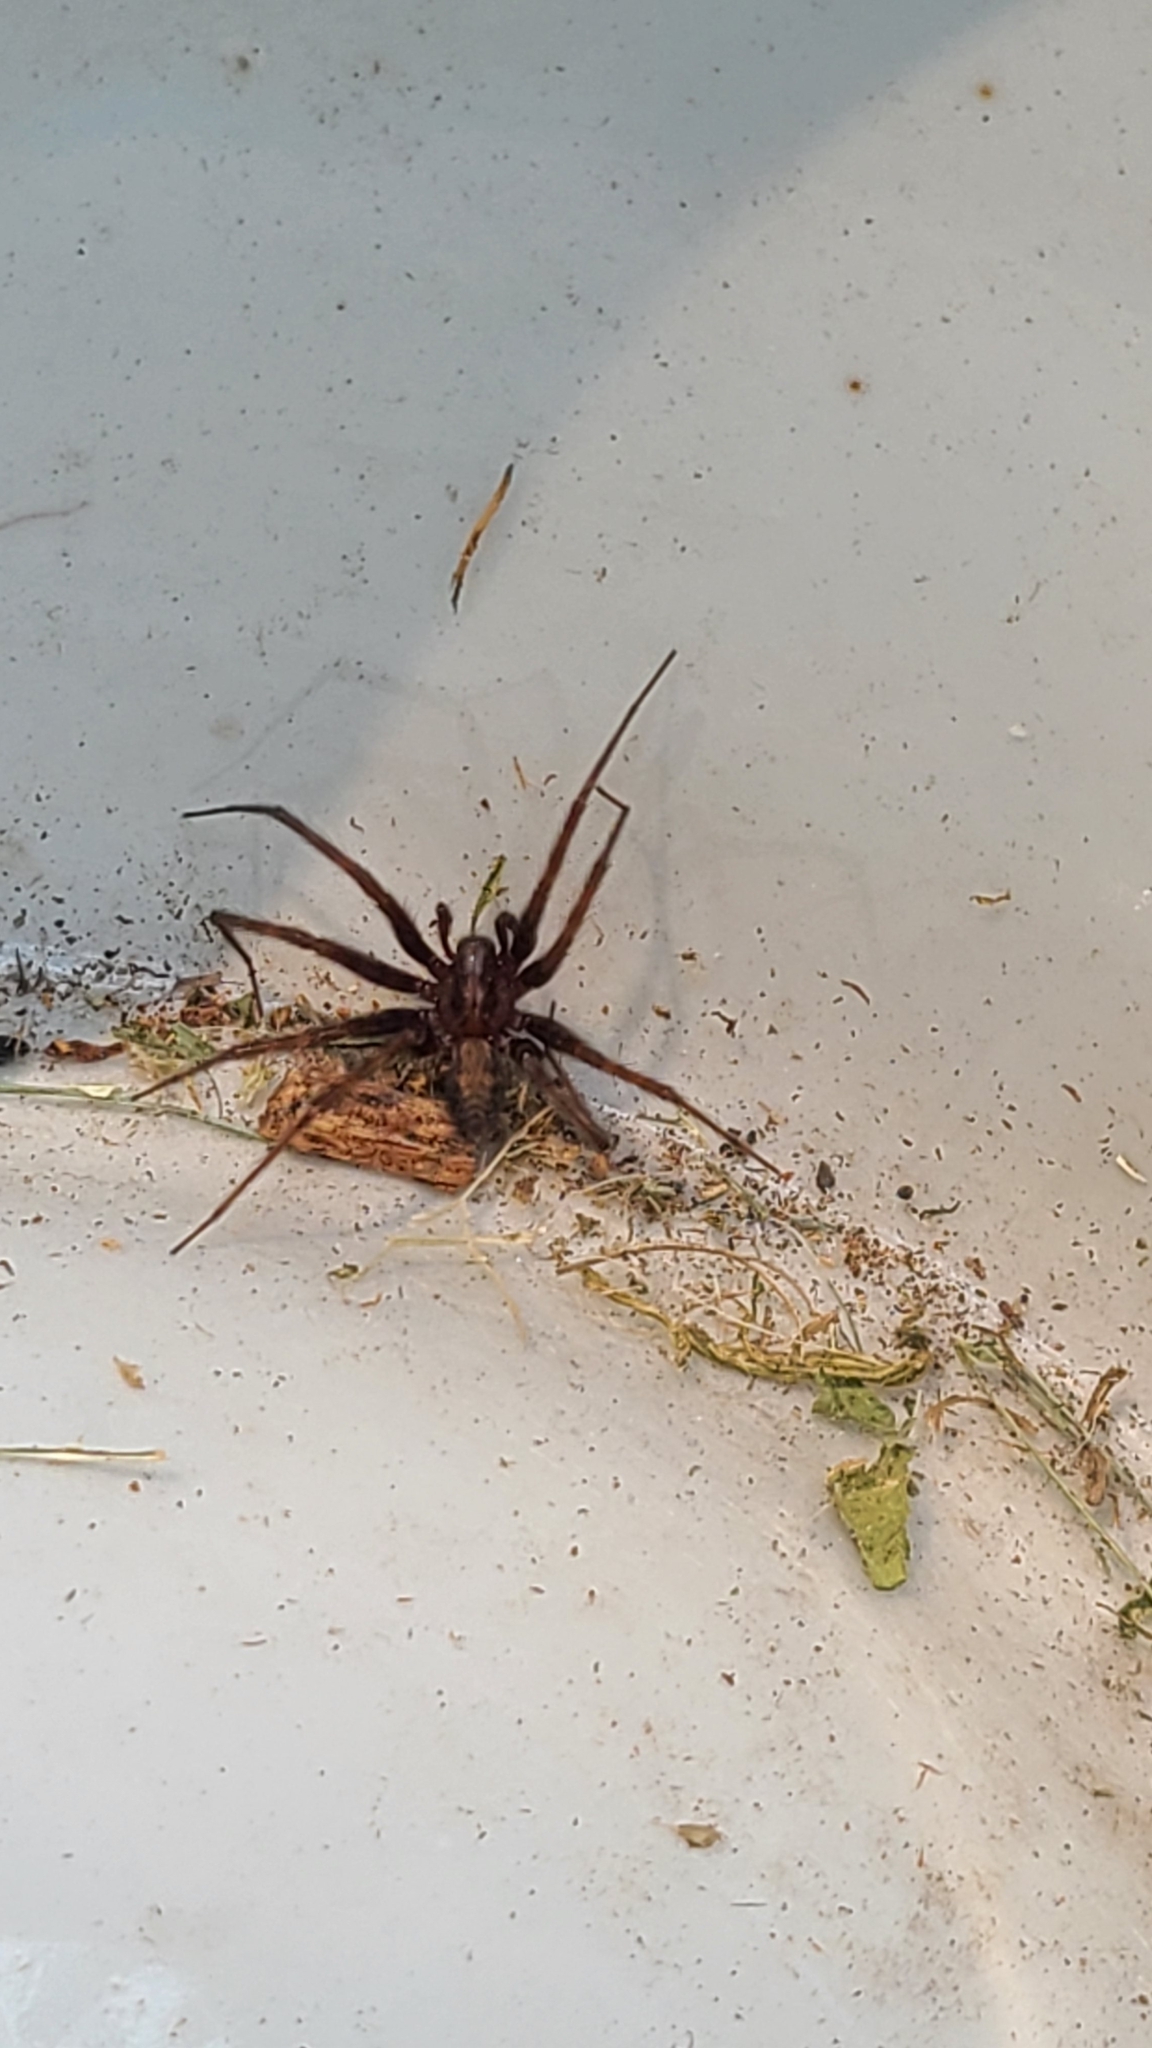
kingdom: Animalia
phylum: Arthropoda
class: Arachnida
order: Araneae
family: Agelenidae
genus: Tegenaria
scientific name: Tegenaria domestica
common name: Barn funnel weaver
